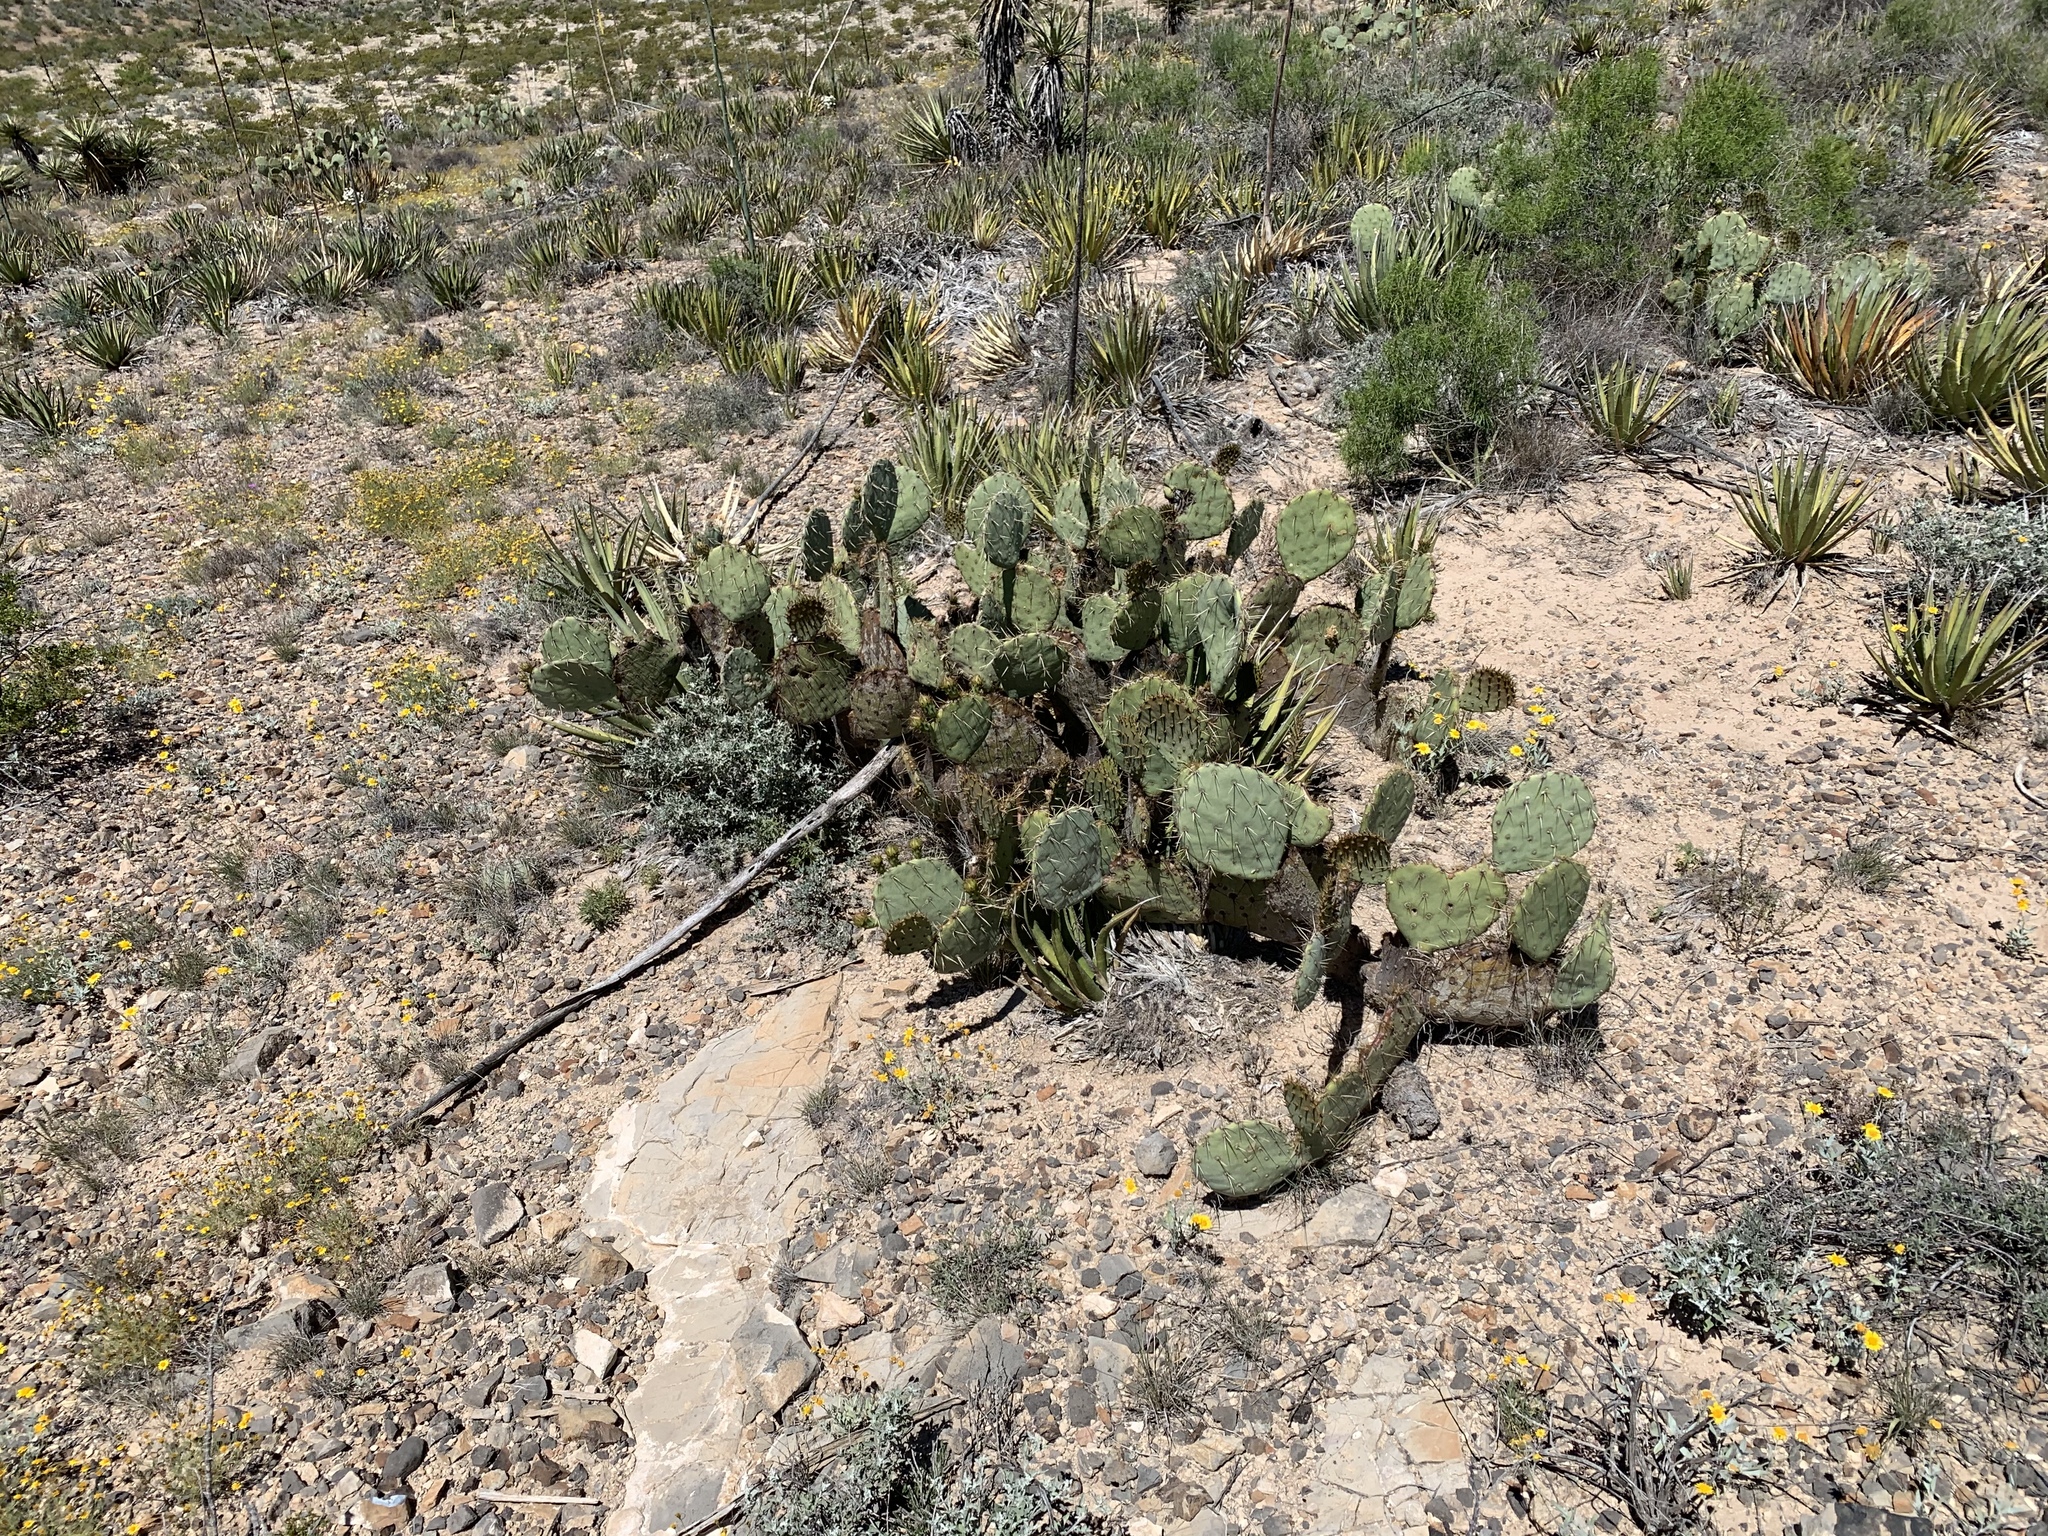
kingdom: Plantae
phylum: Tracheophyta
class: Magnoliopsida
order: Caryophyllales
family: Cactaceae
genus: Opuntia
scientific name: Opuntia engelmannii
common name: Cactus-apple
